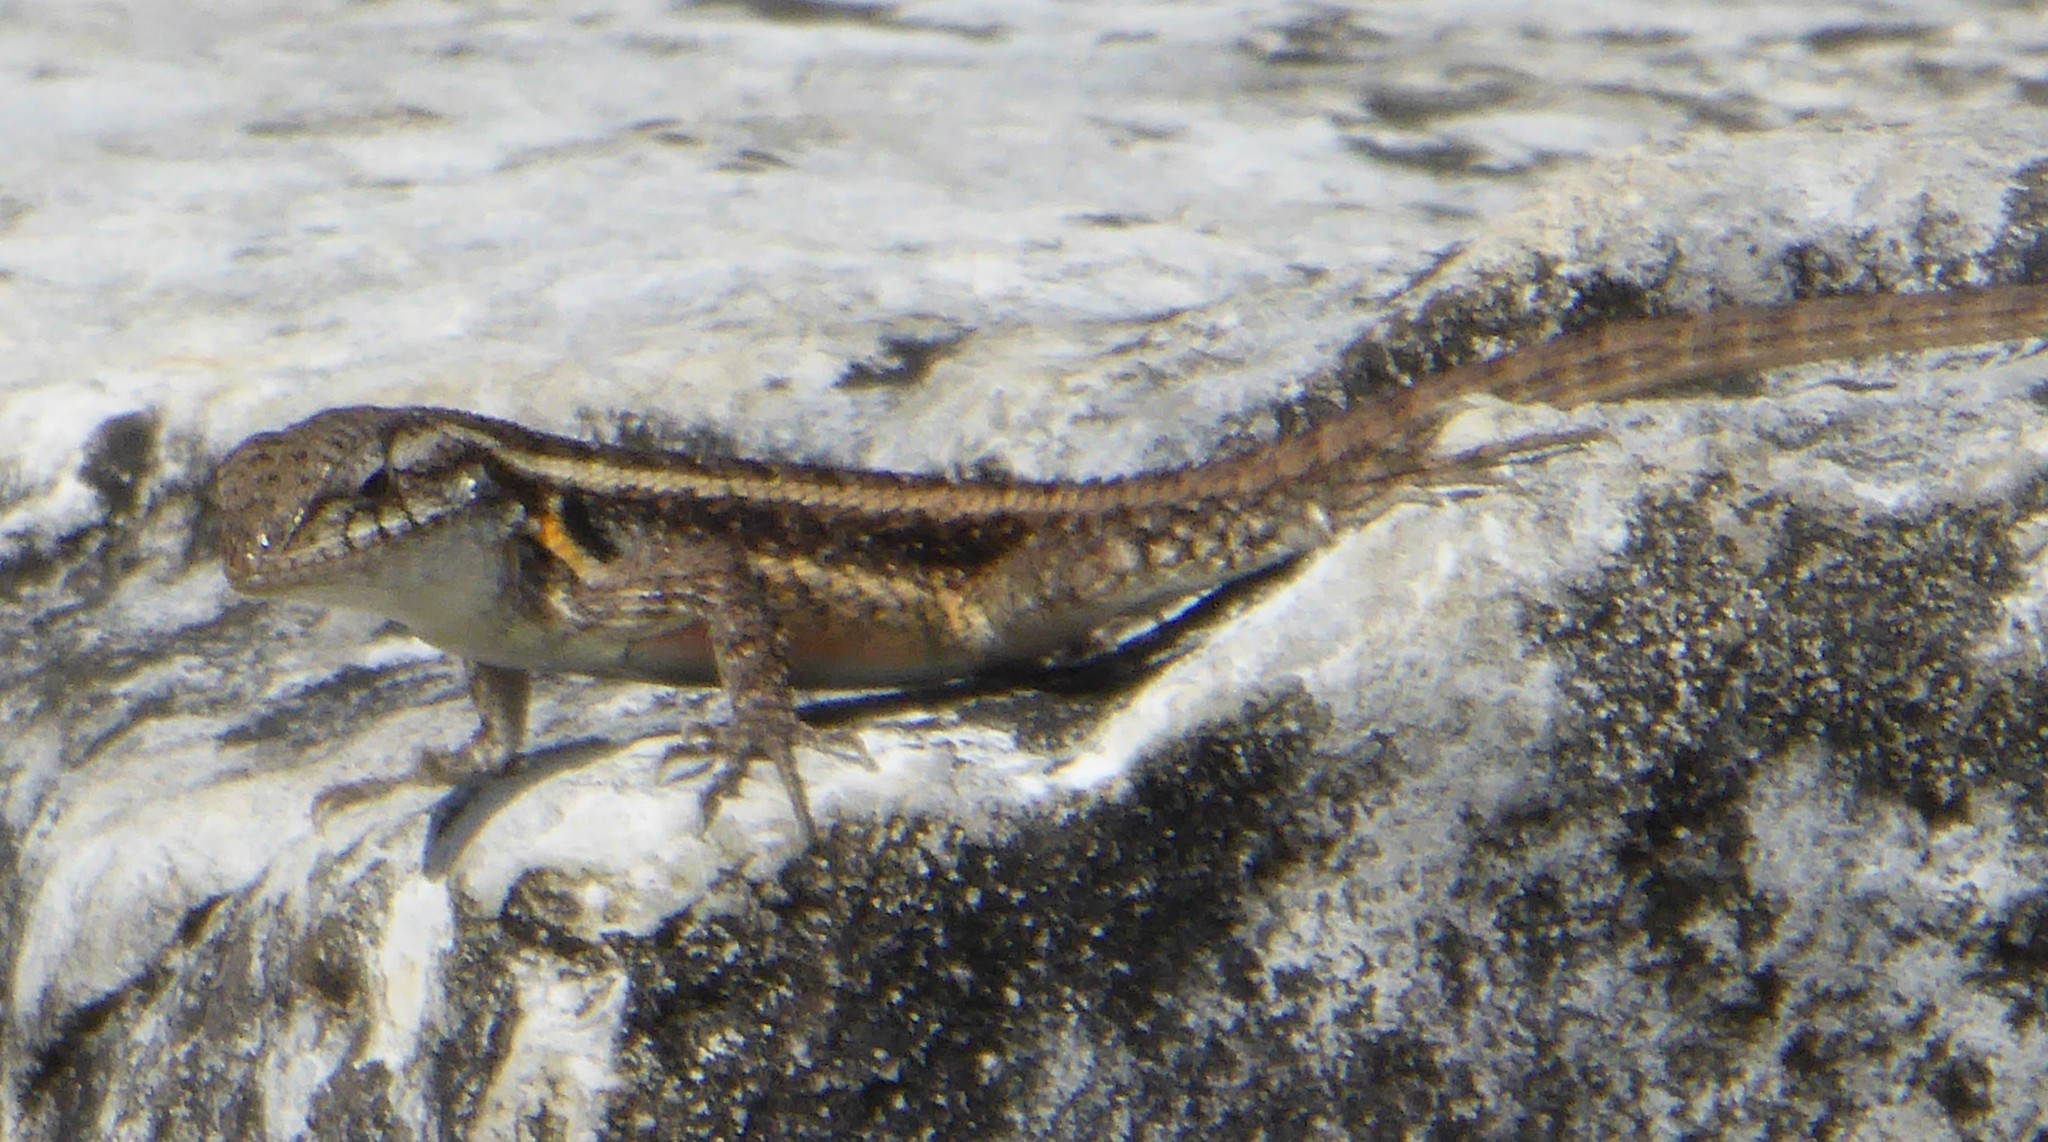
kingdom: Animalia
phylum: Chordata
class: Squamata
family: Phrynosomatidae
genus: Sceloporus
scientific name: Sceloporus variabilis
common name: Rosebelly lizard
